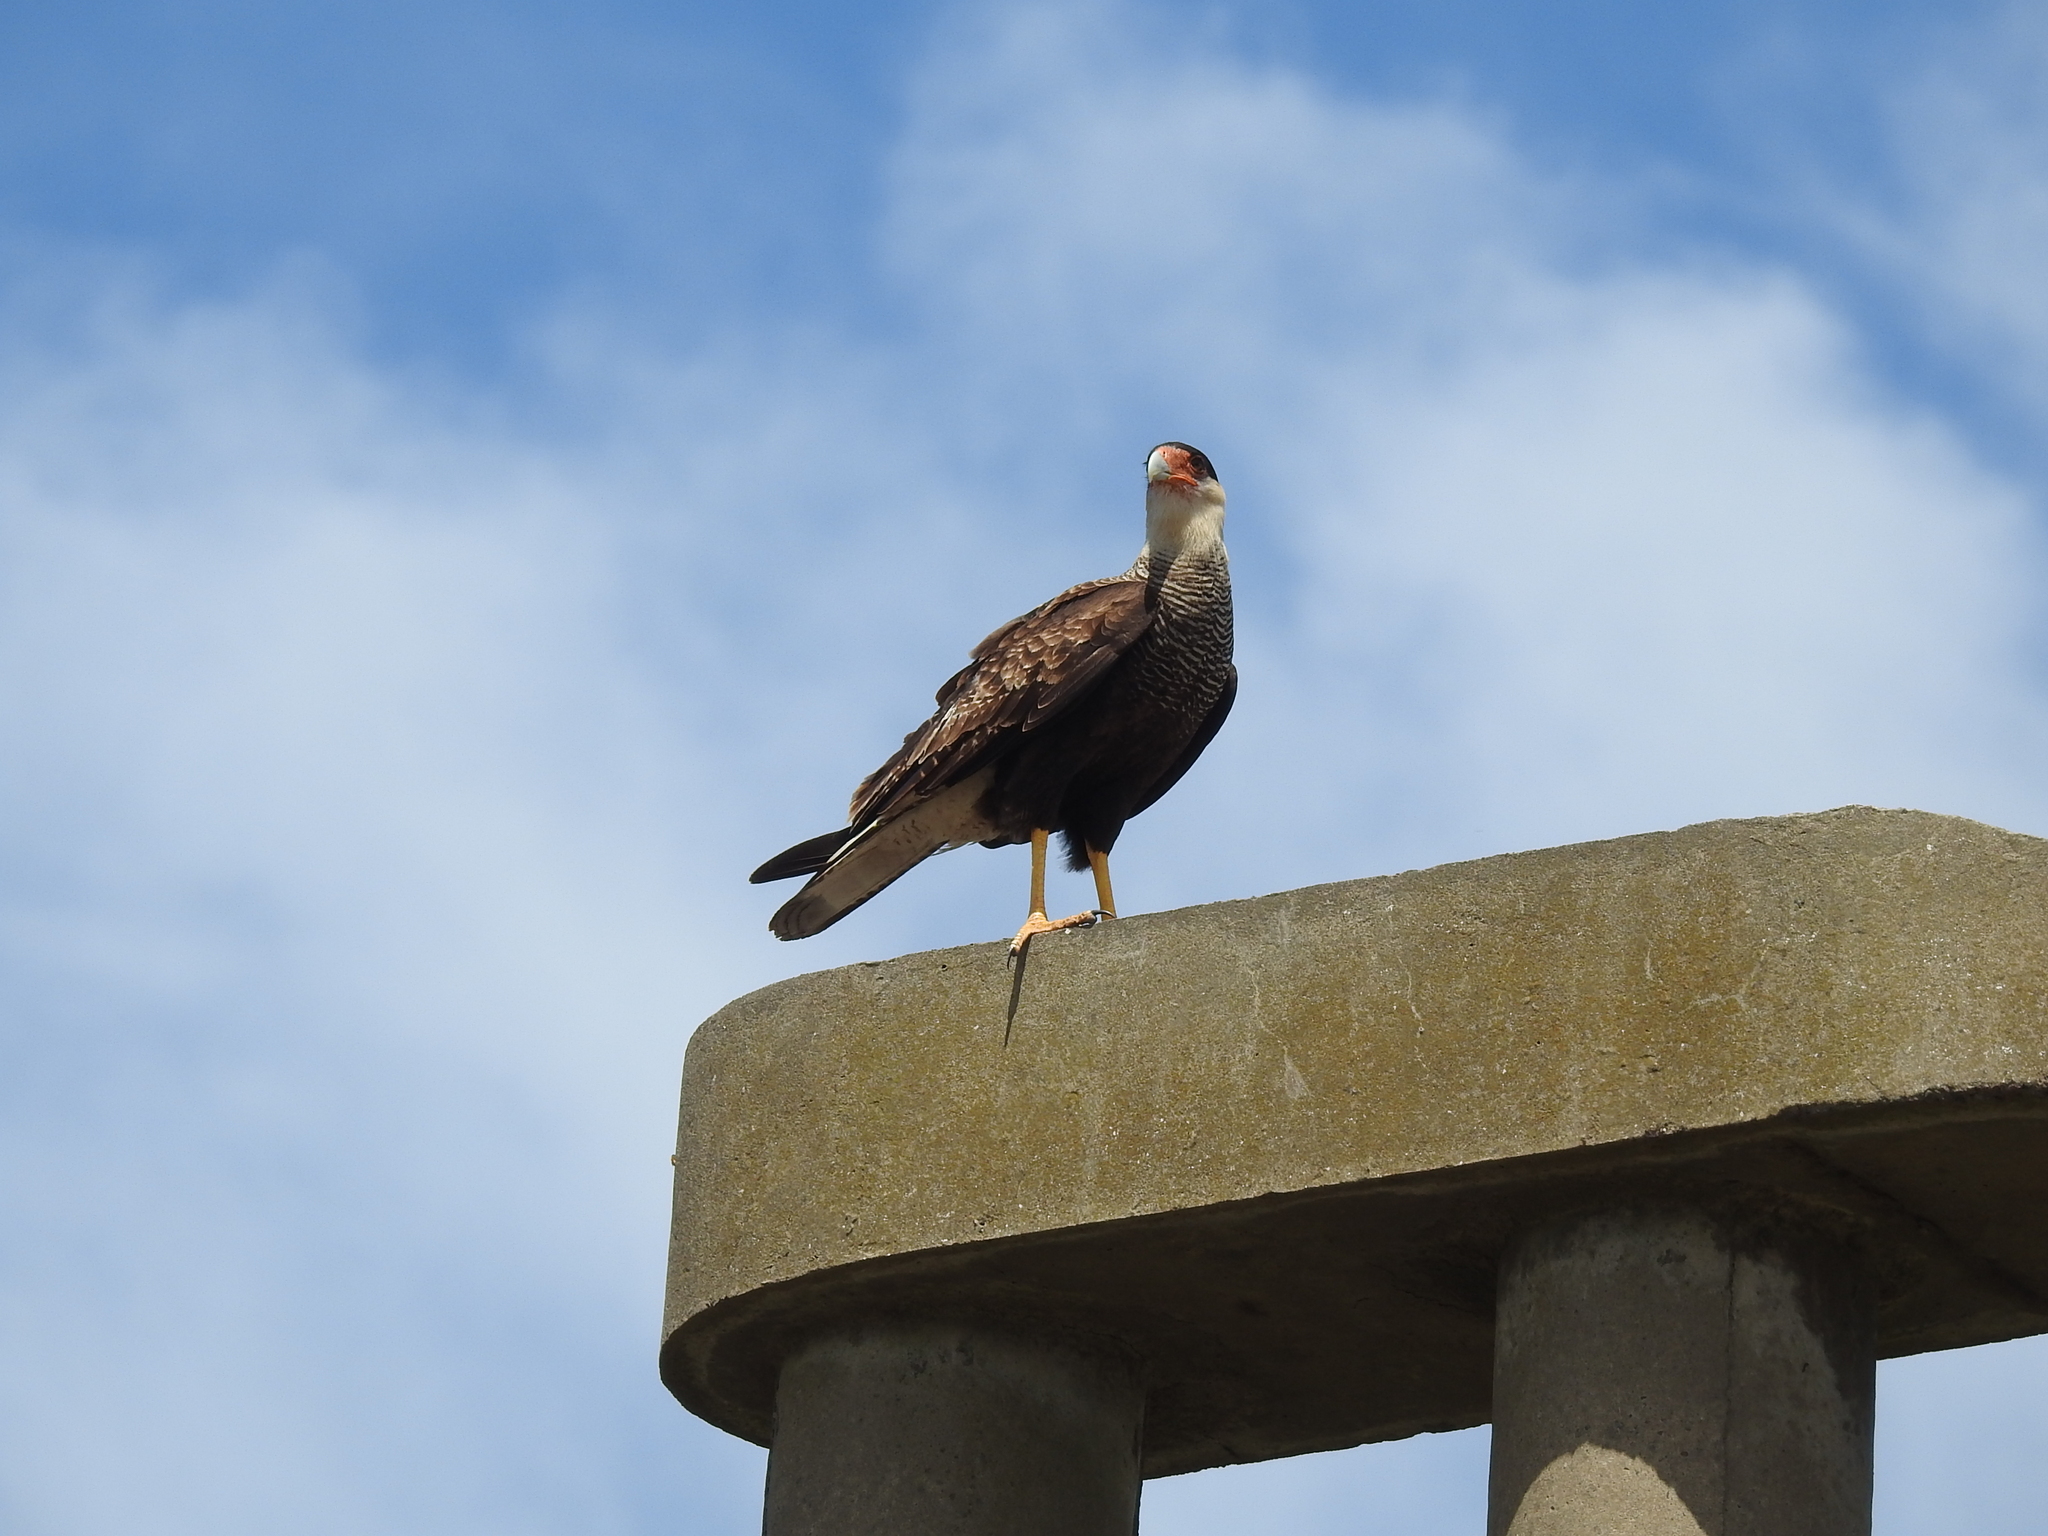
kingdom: Animalia
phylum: Chordata
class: Aves
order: Falconiformes
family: Falconidae
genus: Caracara
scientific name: Caracara plancus
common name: Southern caracara
